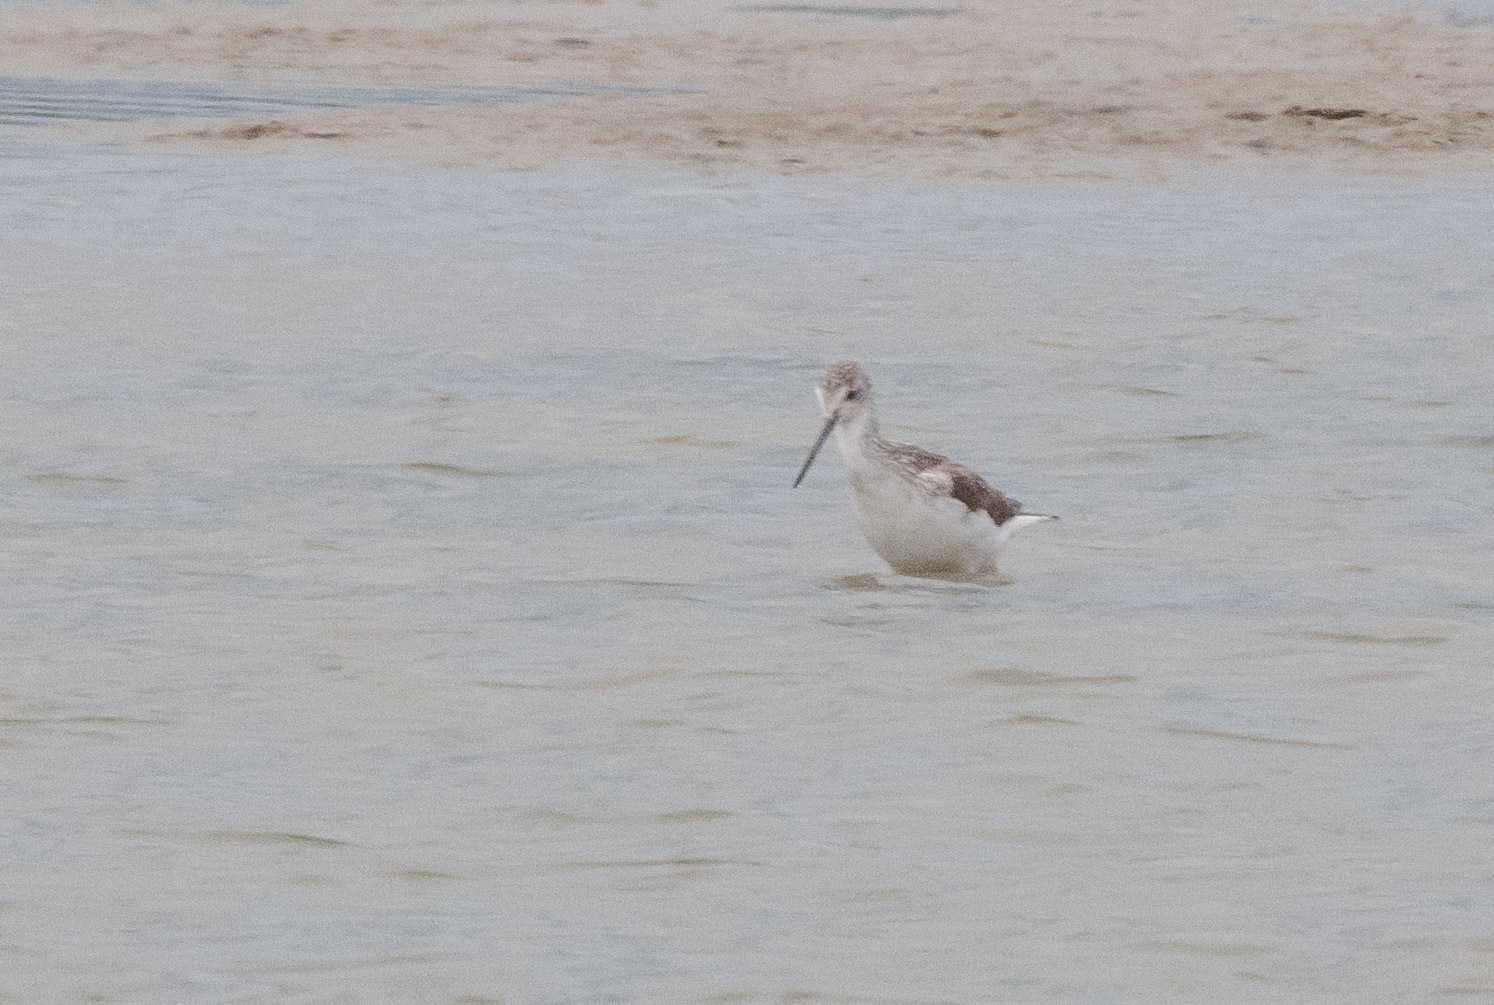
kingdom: Animalia
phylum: Chordata
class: Aves
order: Charadriiformes
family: Scolopacidae
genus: Tringa
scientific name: Tringa nebularia
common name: Common greenshank
